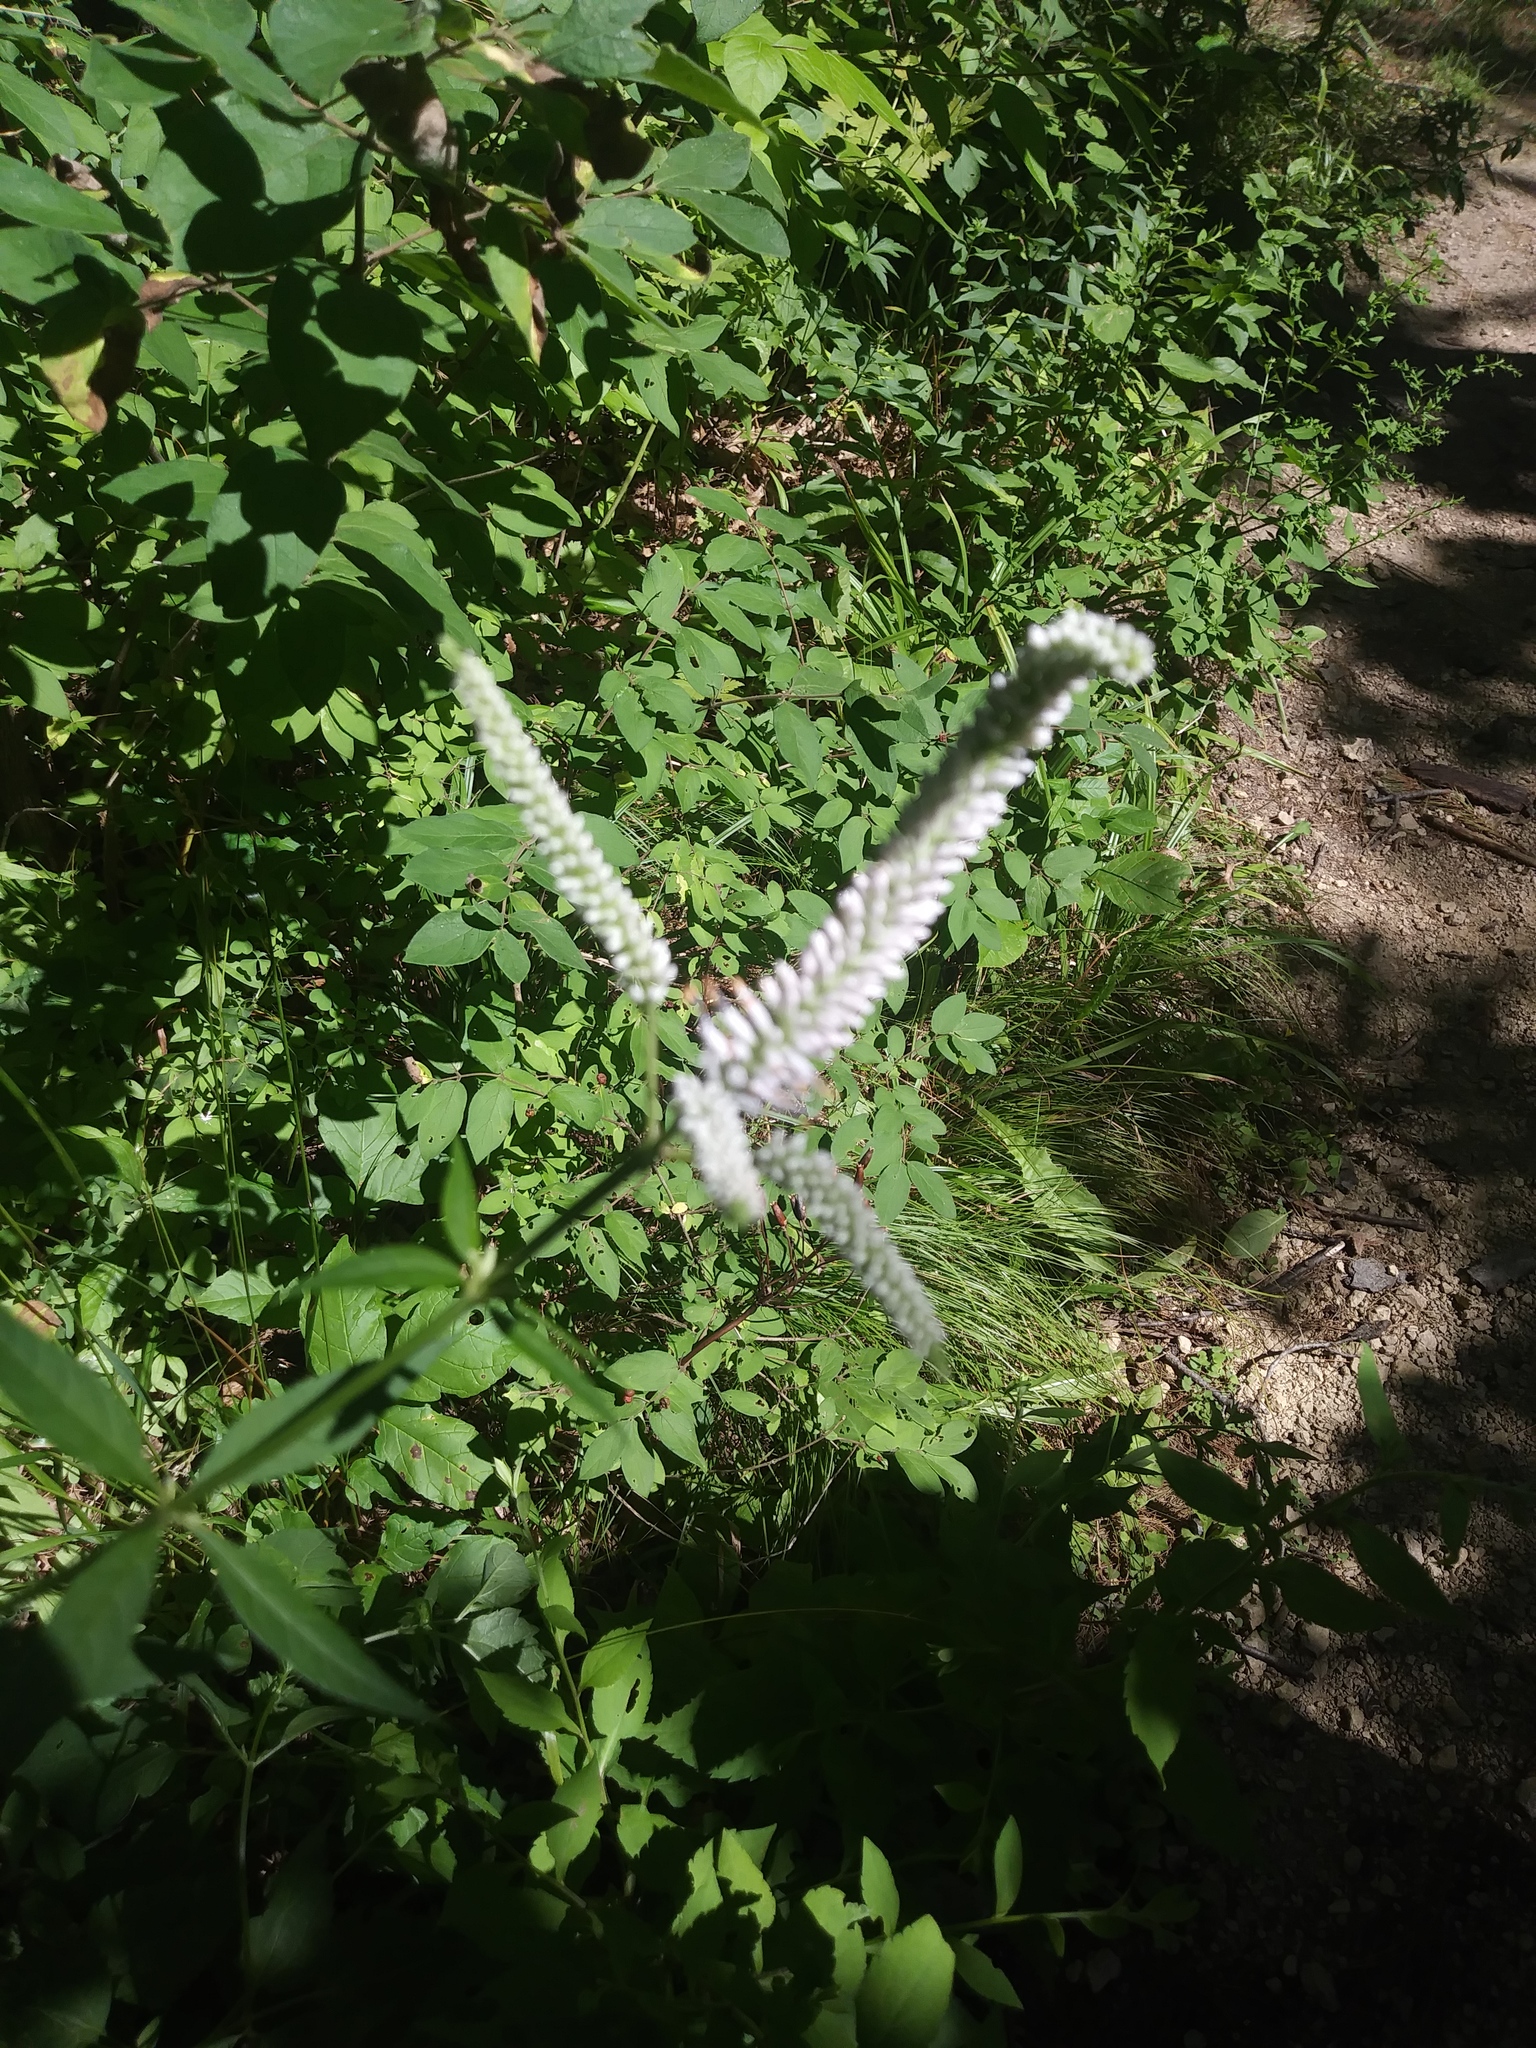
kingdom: Plantae
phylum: Tracheophyta
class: Magnoliopsida
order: Lamiales
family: Plantaginaceae
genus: Veronicastrum
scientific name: Veronicastrum virginicum
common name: Blackroot
